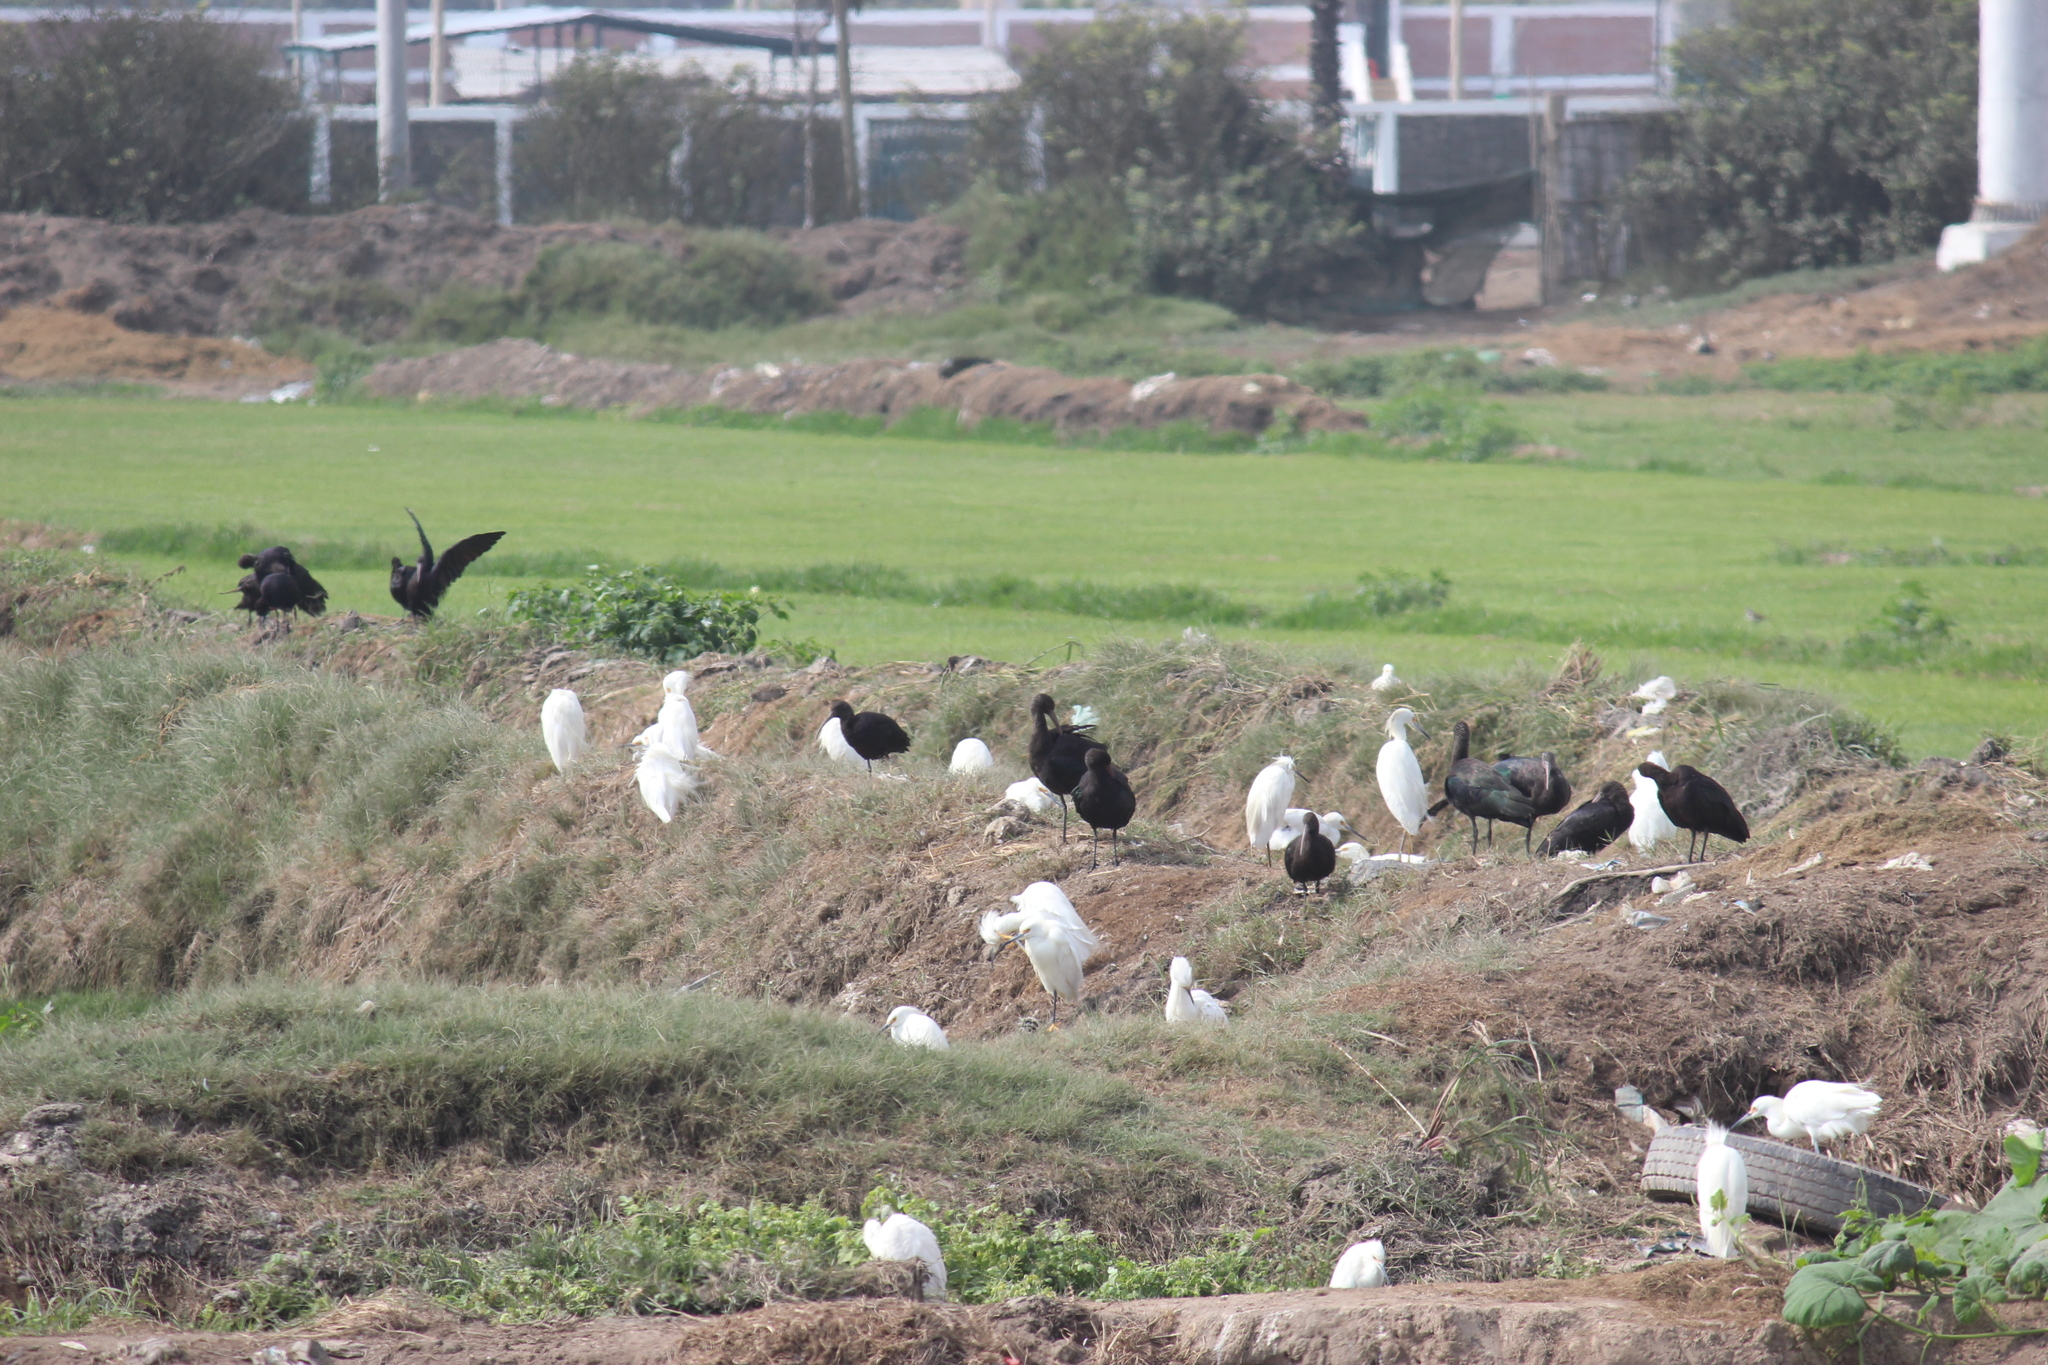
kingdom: Animalia
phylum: Chordata
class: Aves
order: Pelecaniformes
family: Threskiornithidae
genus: Plegadis
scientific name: Plegadis ridgwayi
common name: Puna ibis
